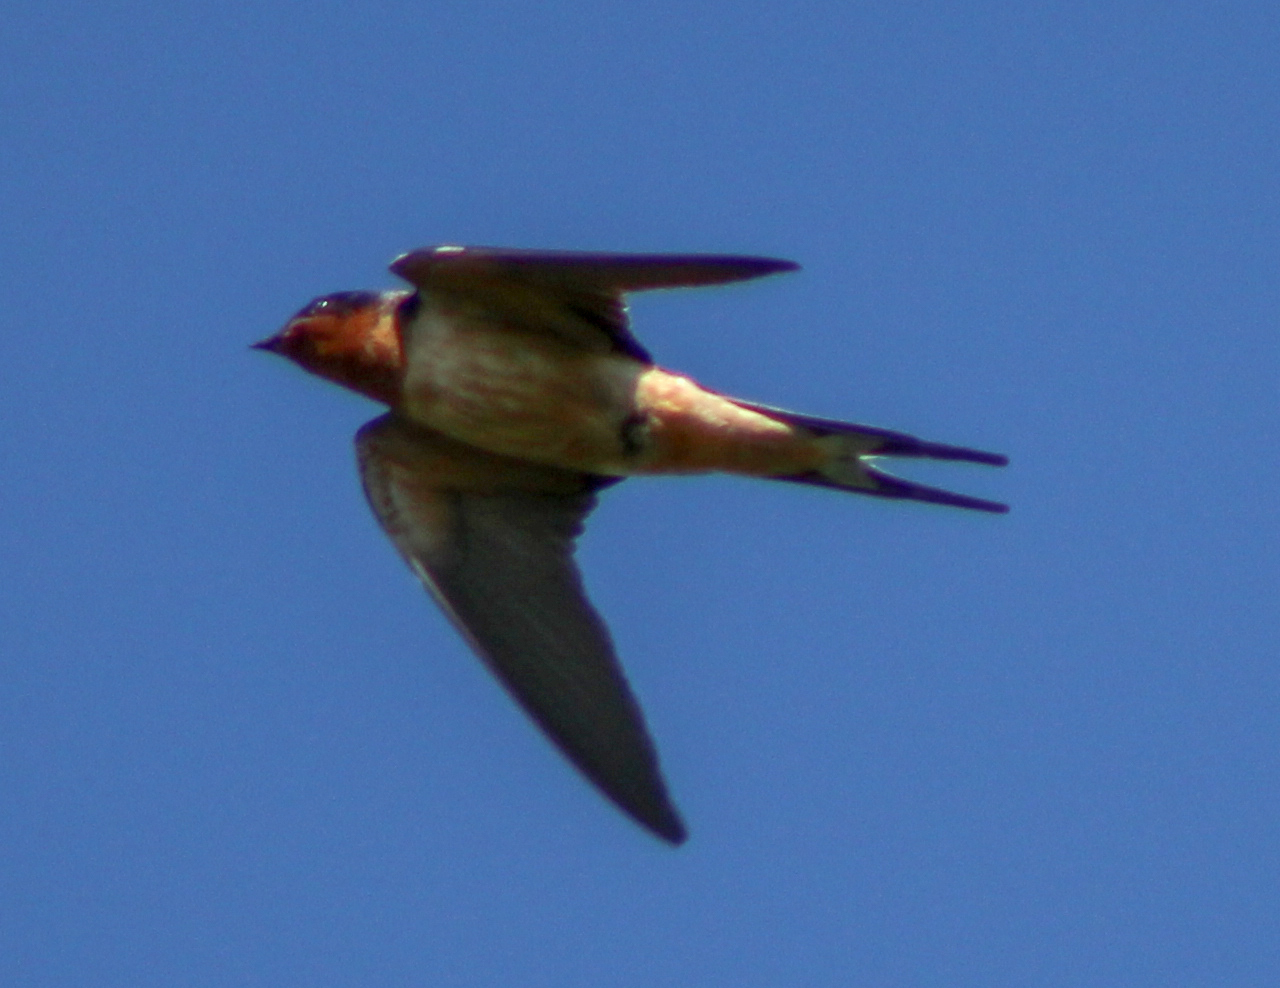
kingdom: Animalia
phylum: Chordata
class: Aves
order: Passeriformes
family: Hirundinidae
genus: Hirundo
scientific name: Hirundo rustica
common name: Barn swallow
